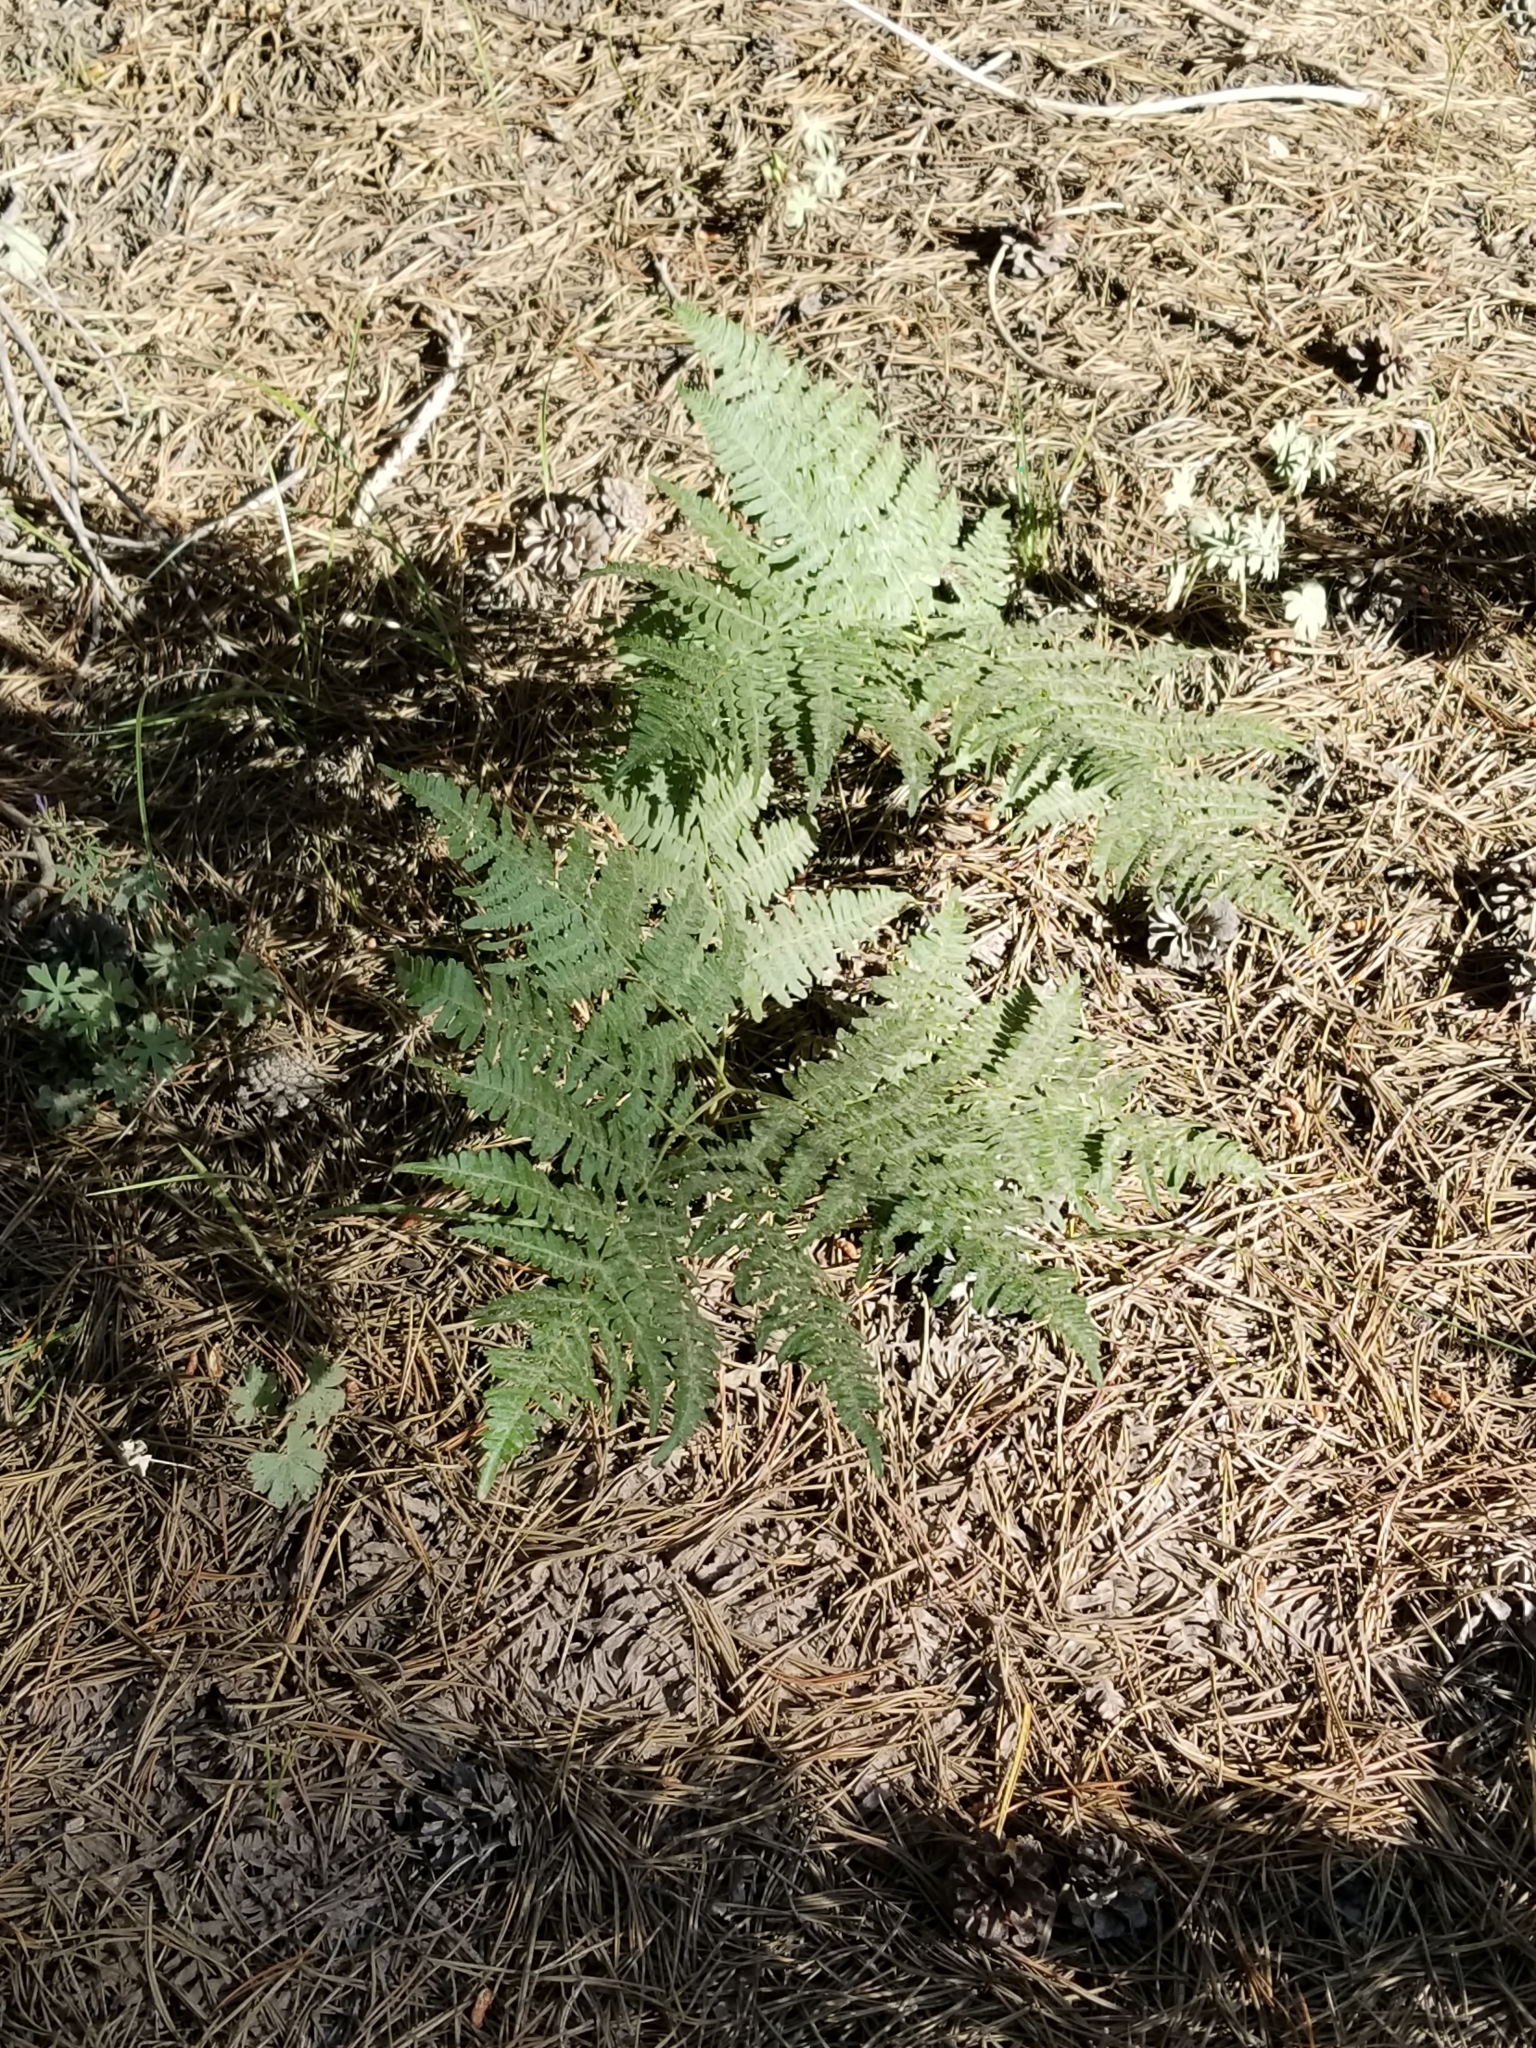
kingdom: Plantae
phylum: Tracheophyta
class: Polypodiopsida
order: Polypodiales
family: Dennstaedtiaceae
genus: Pteridium
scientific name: Pteridium aquilinum
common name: Bracken
